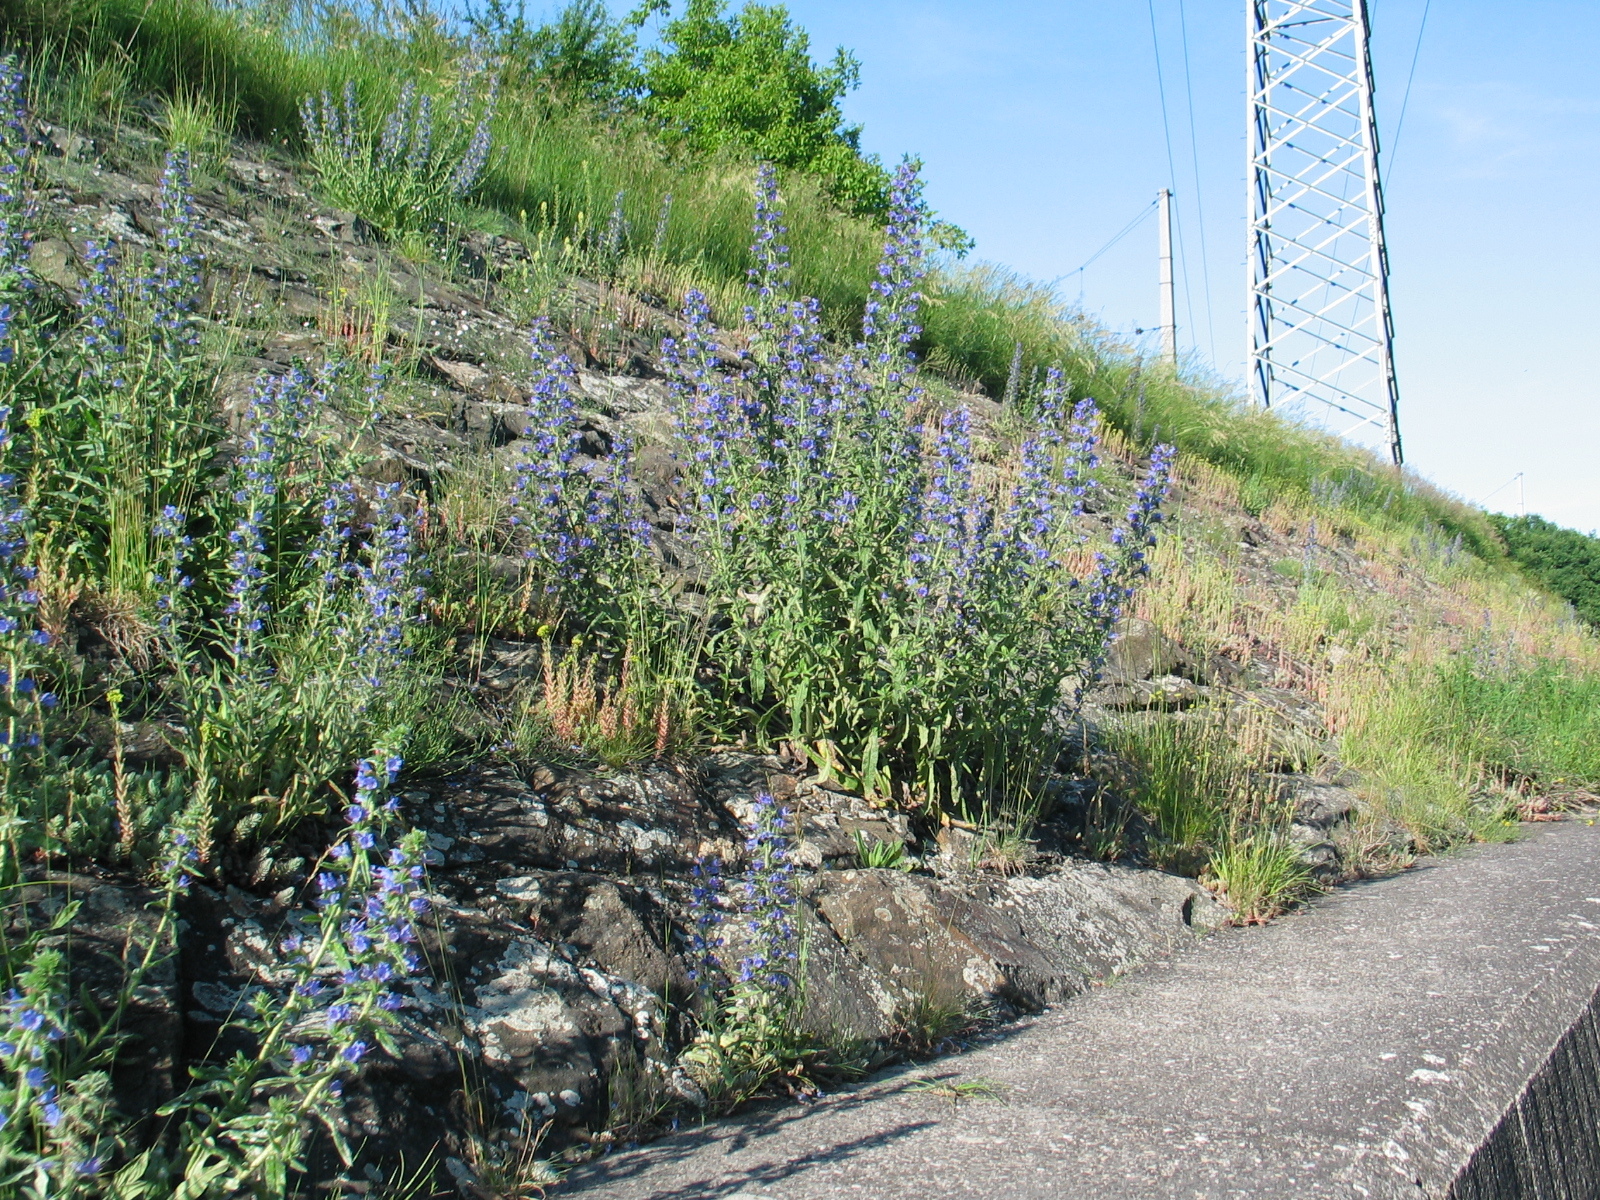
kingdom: Plantae
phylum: Tracheophyta
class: Magnoliopsida
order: Boraginales
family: Boraginaceae
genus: Echium
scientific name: Echium vulgare
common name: Common viper's bugloss
